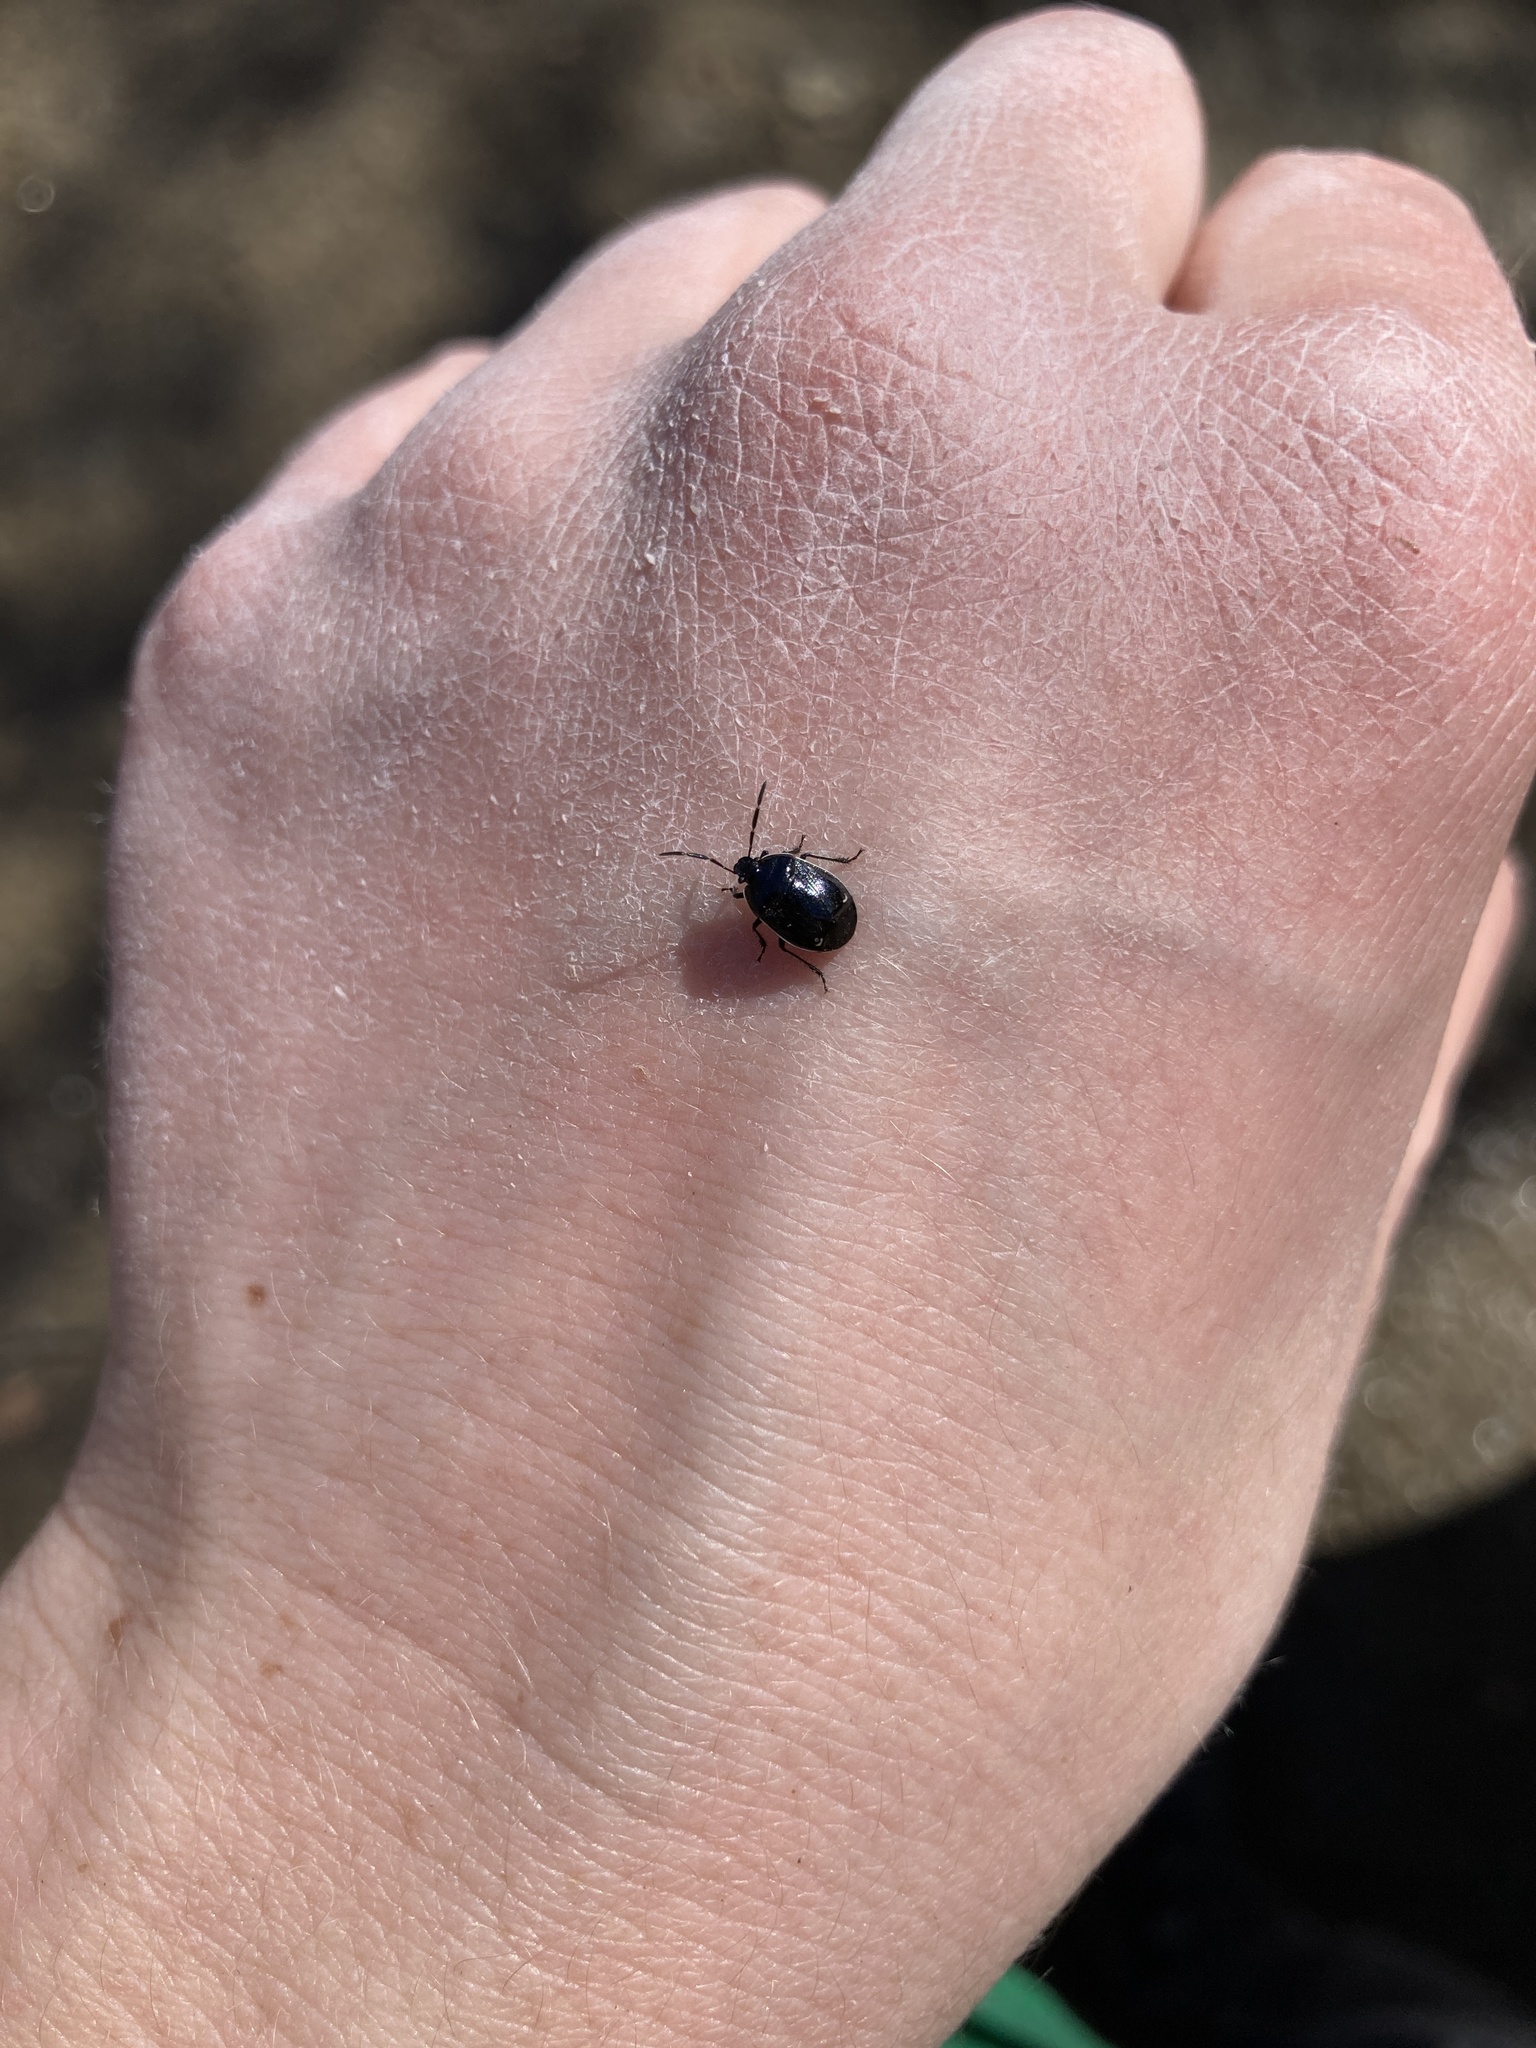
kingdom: Animalia
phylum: Arthropoda
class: Insecta
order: Hemiptera
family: Cydnidae
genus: Sehirus
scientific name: Sehirus cinctus
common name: White-margined burrower bug
